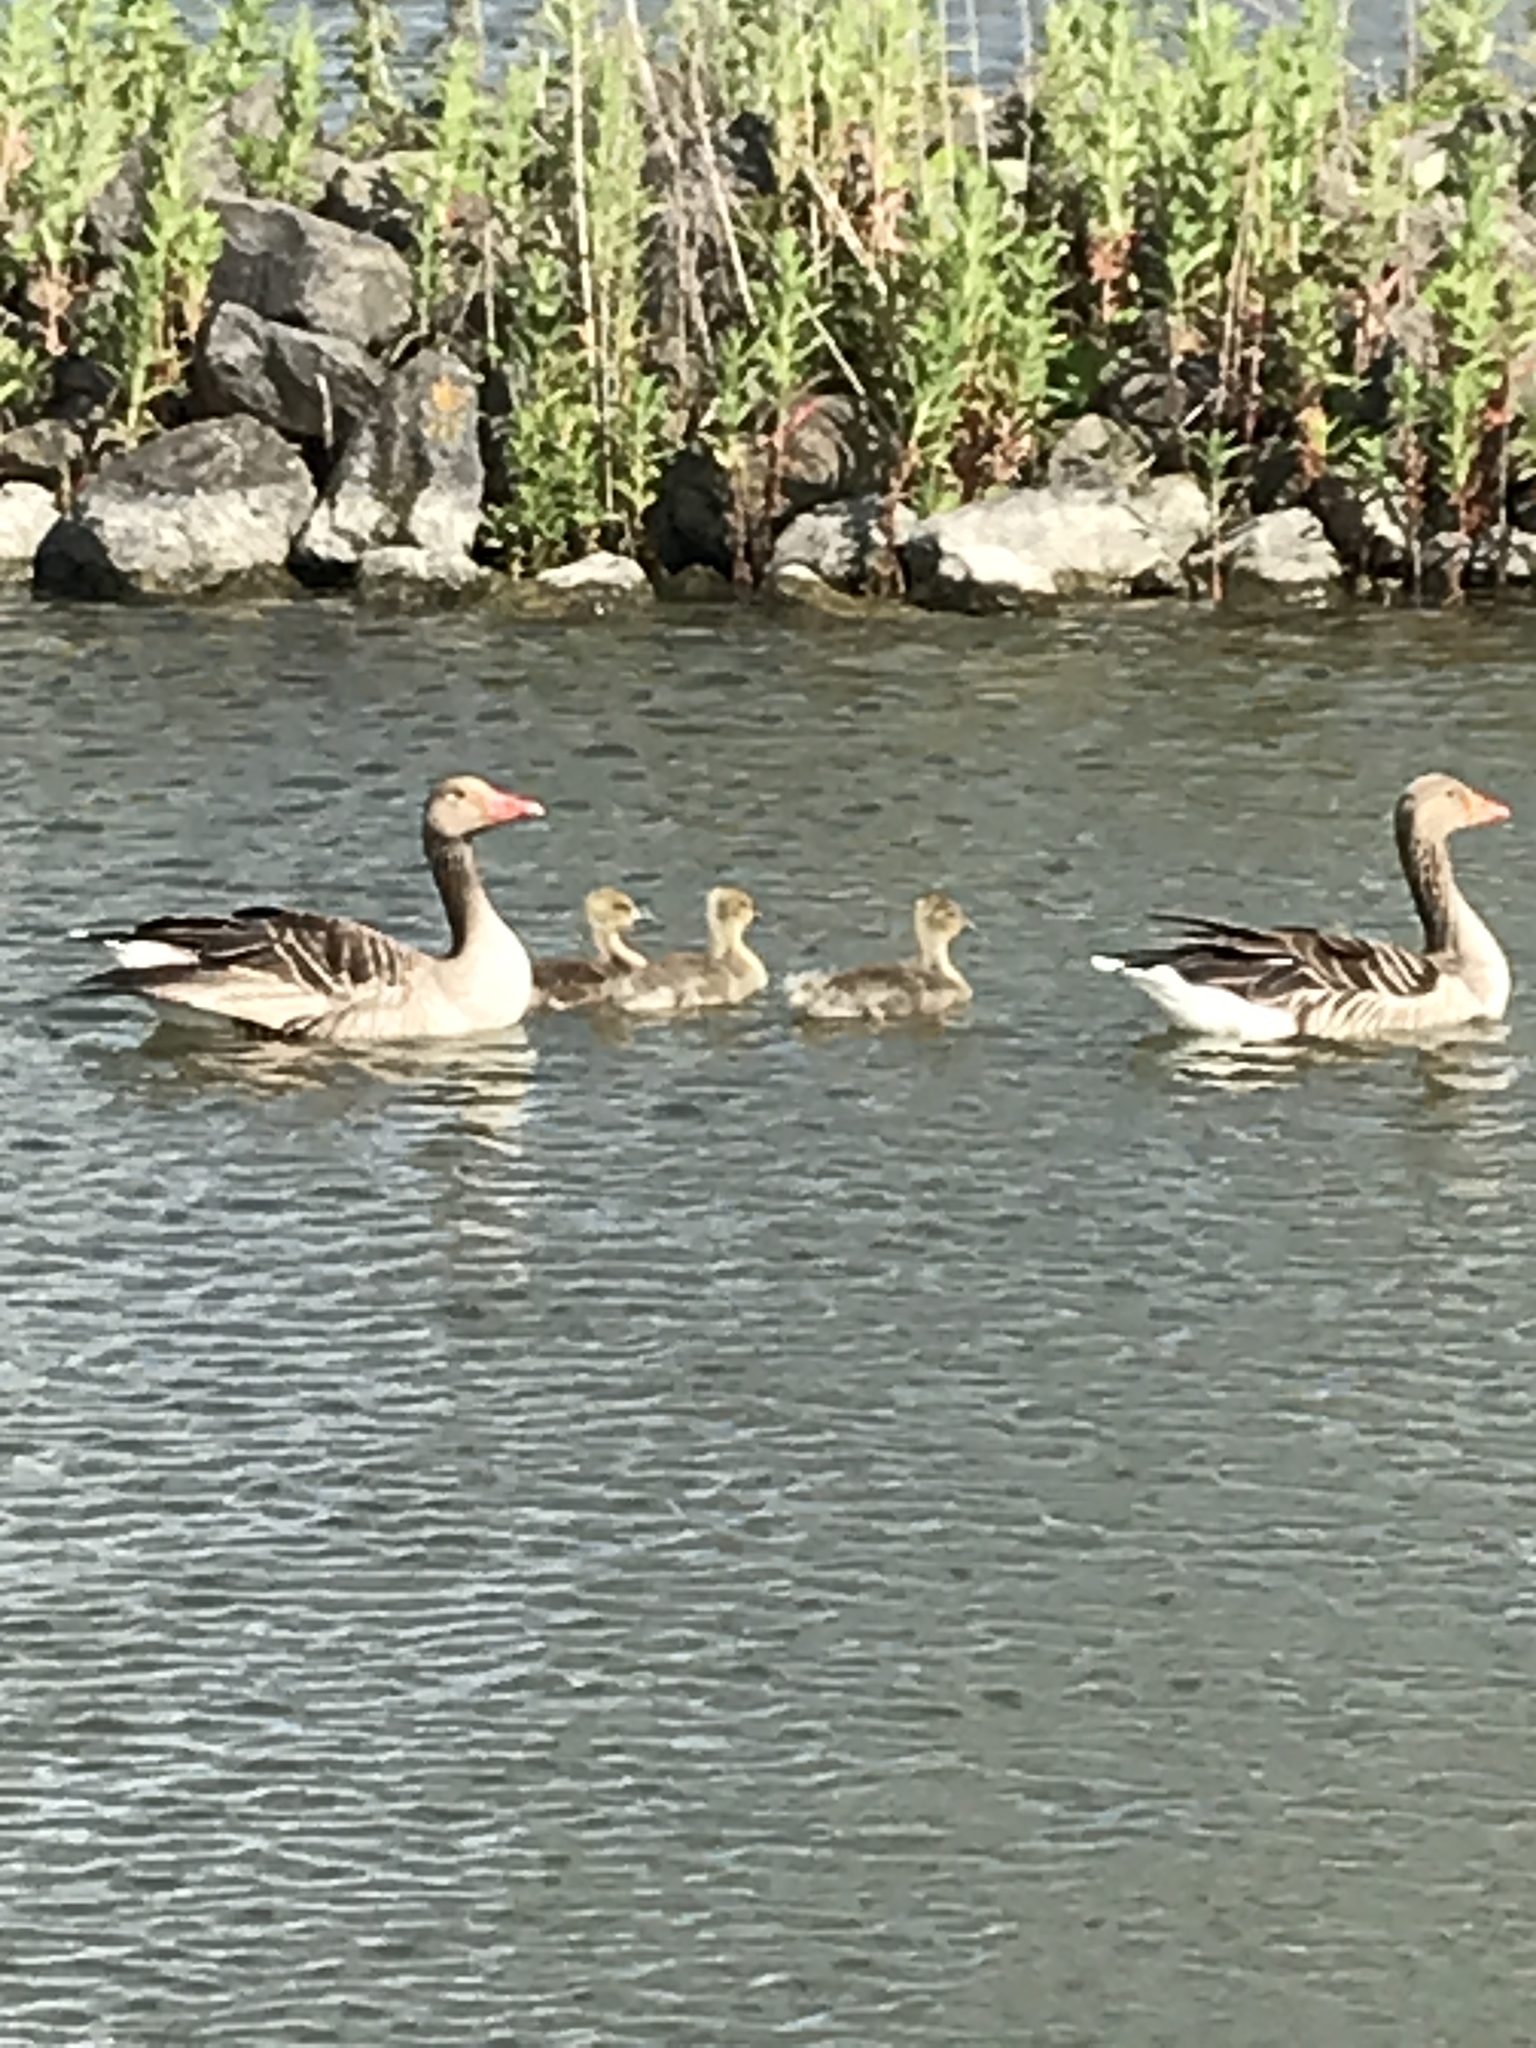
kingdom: Animalia
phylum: Chordata
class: Aves
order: Anseriformes
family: Anatidae
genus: Anser
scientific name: Anser anser
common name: Greylag goose
